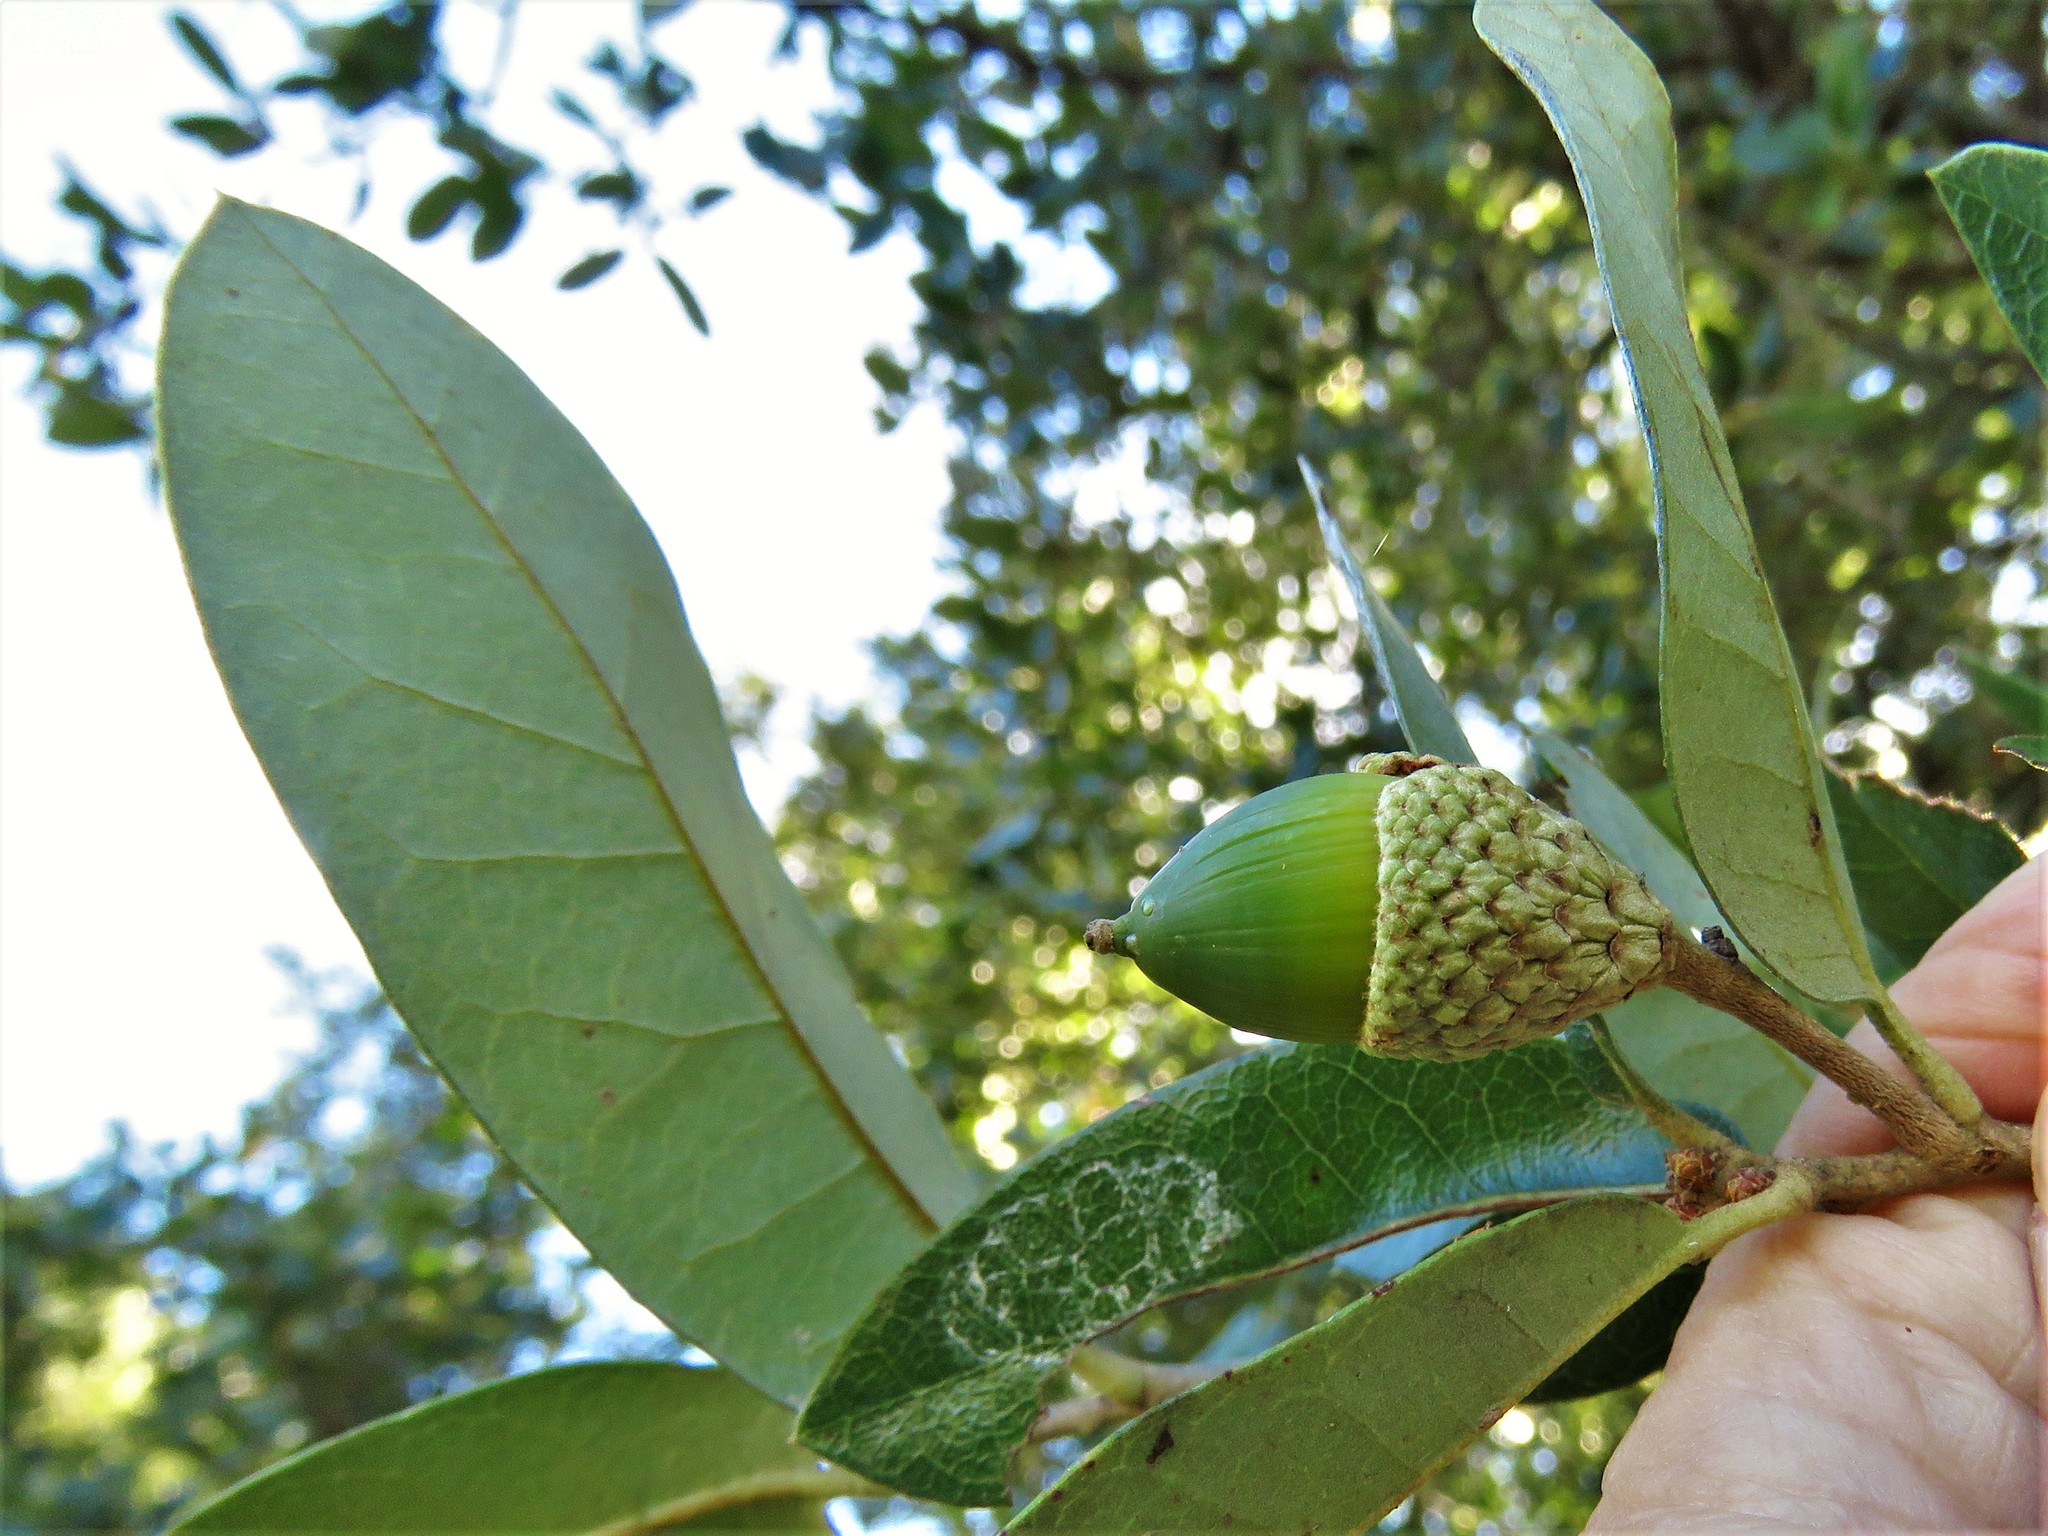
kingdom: Plantae
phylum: Tracheophyta
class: Magnoliopsida
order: Fagales
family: Fagaceae
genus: Quercus
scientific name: Quercus fusiformis
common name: Texas live oak
